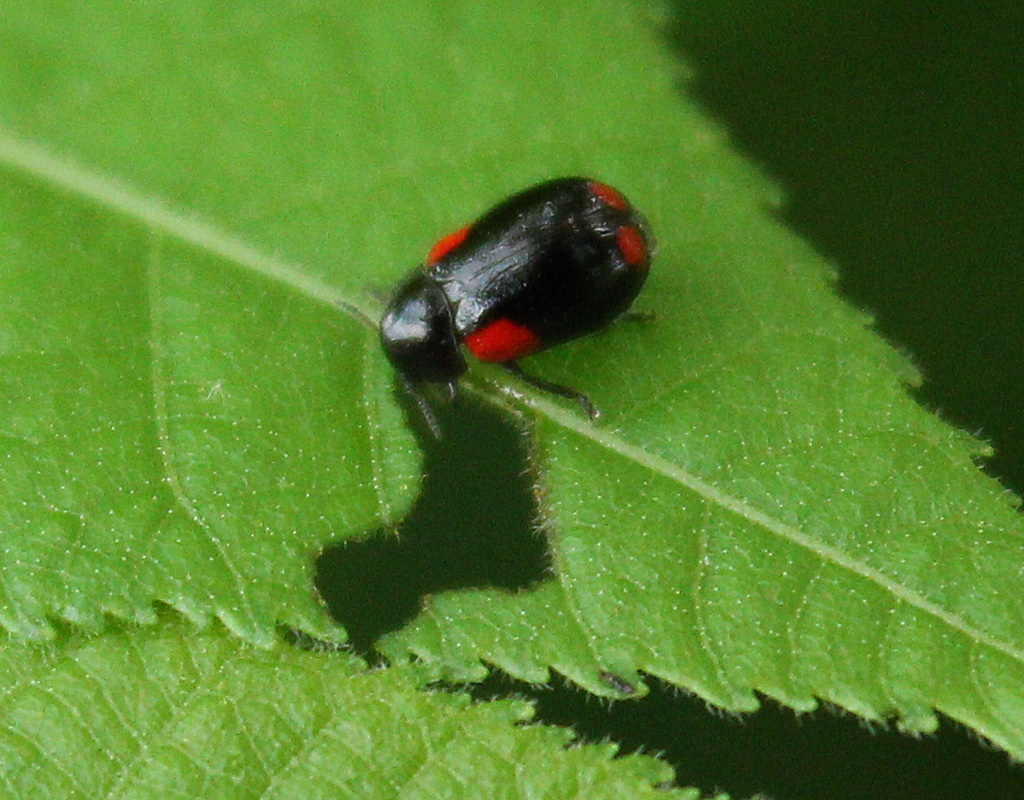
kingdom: Animalia
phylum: Arthropoda
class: Insecta
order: Coleoptera
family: Chrysomelidae
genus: Babia
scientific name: Babia quadriguttata
